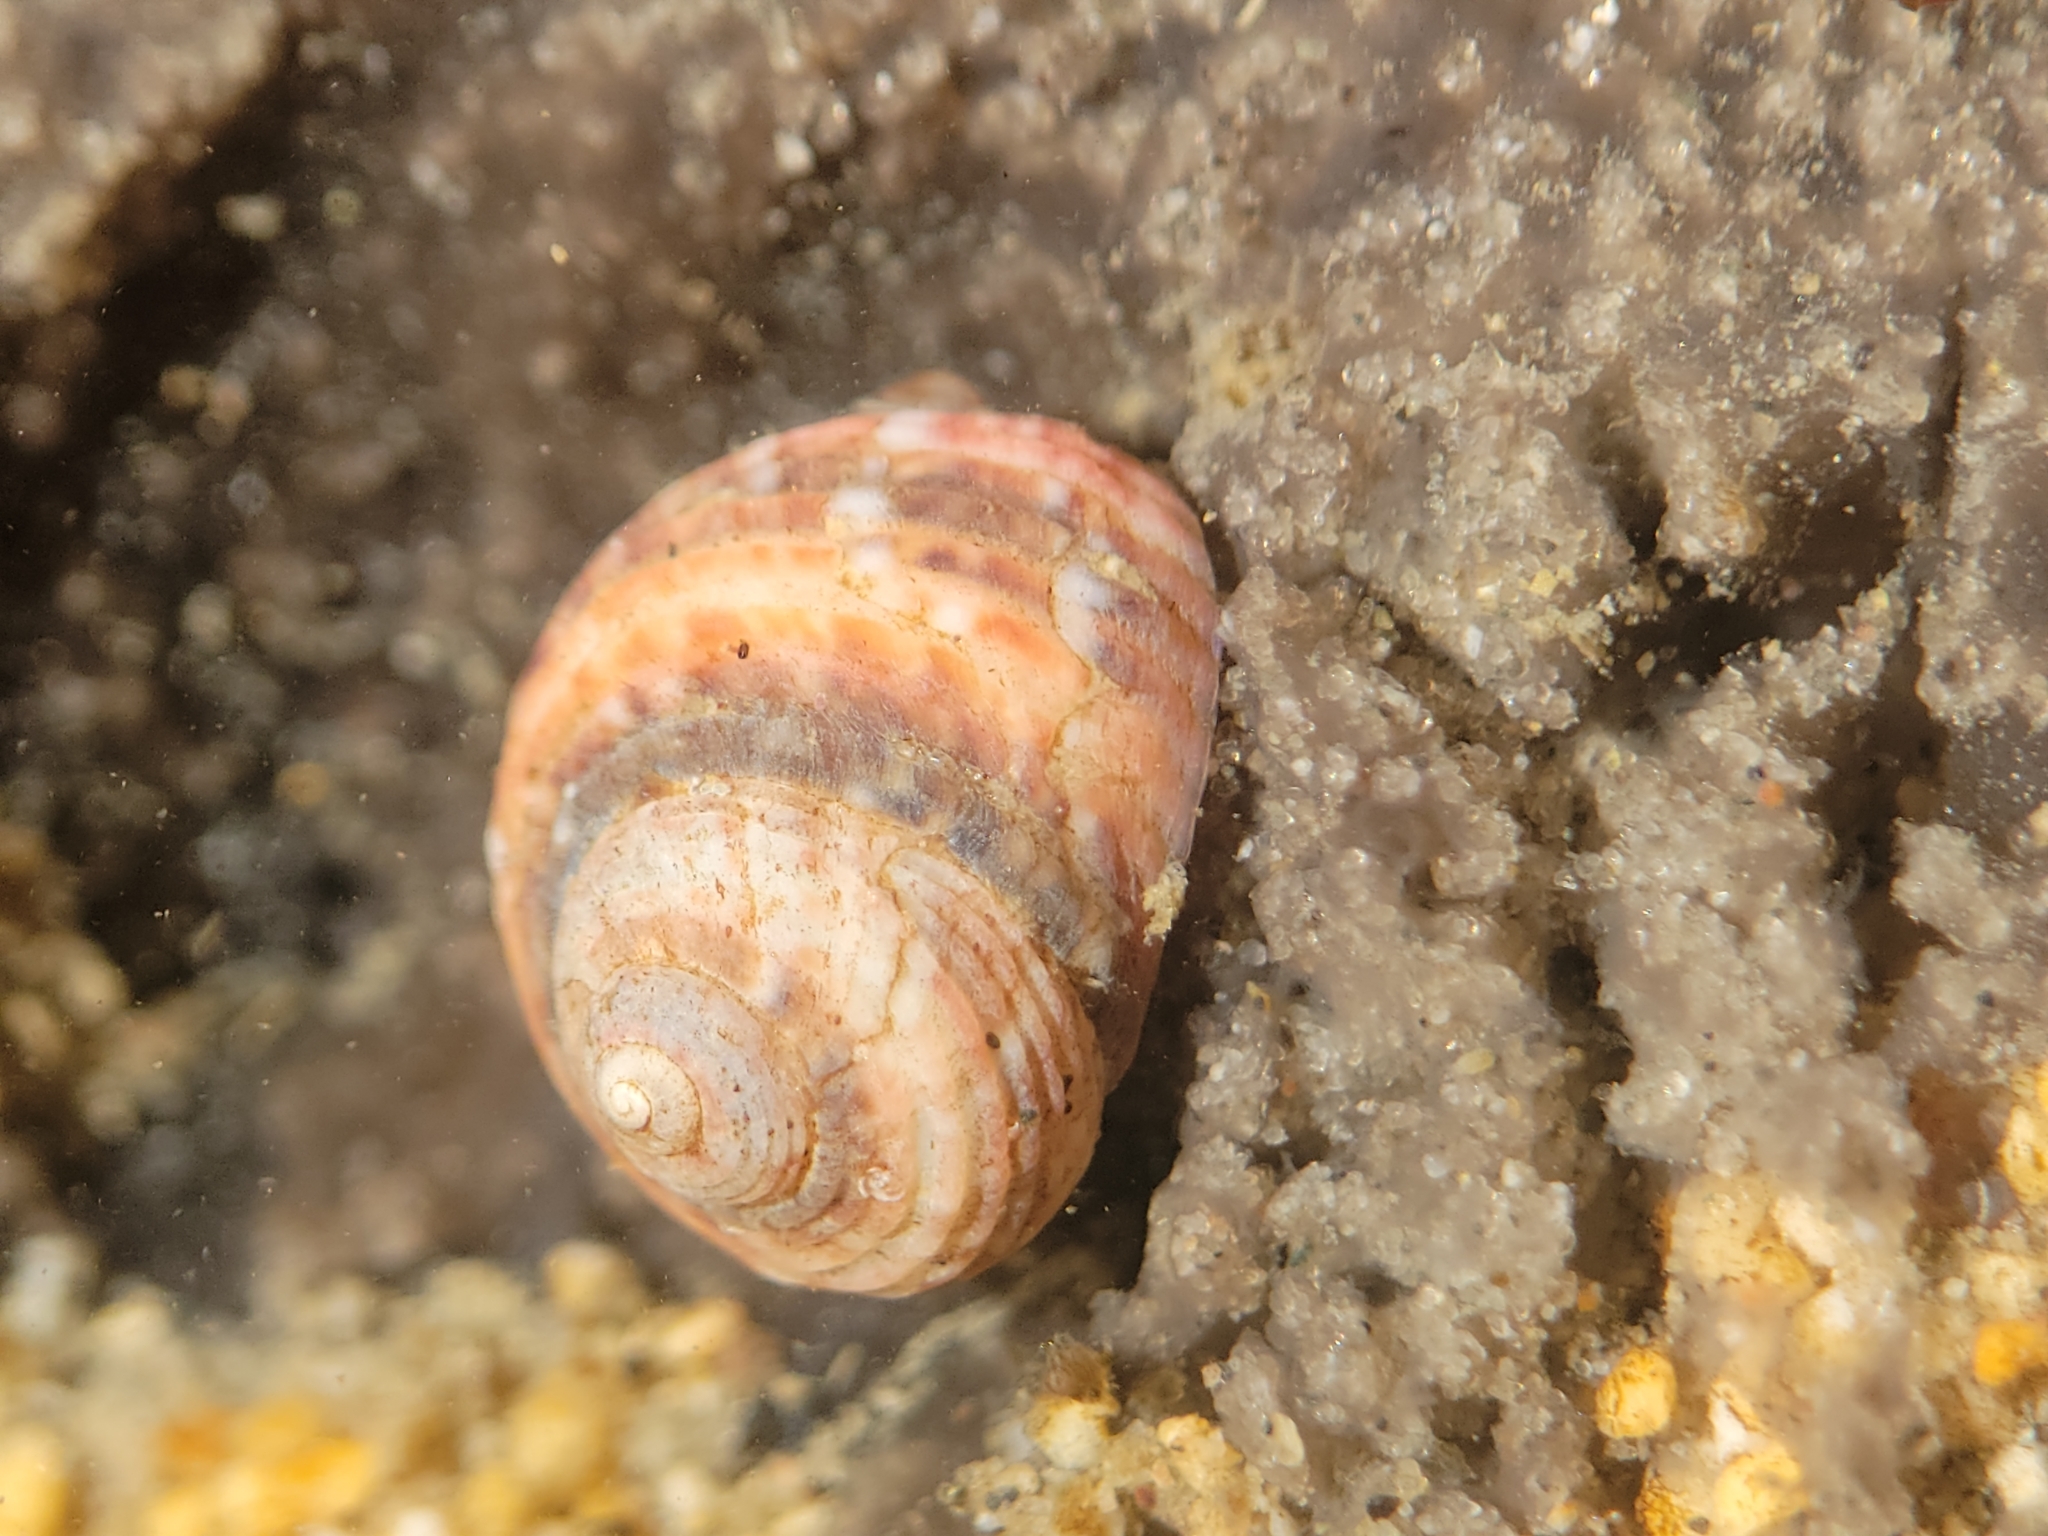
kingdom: Animalia
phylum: Mollusca
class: Gastropoda
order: Trochida
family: Colloniidae
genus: Gigahomalopoma
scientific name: Gigahomalopoma luridum
